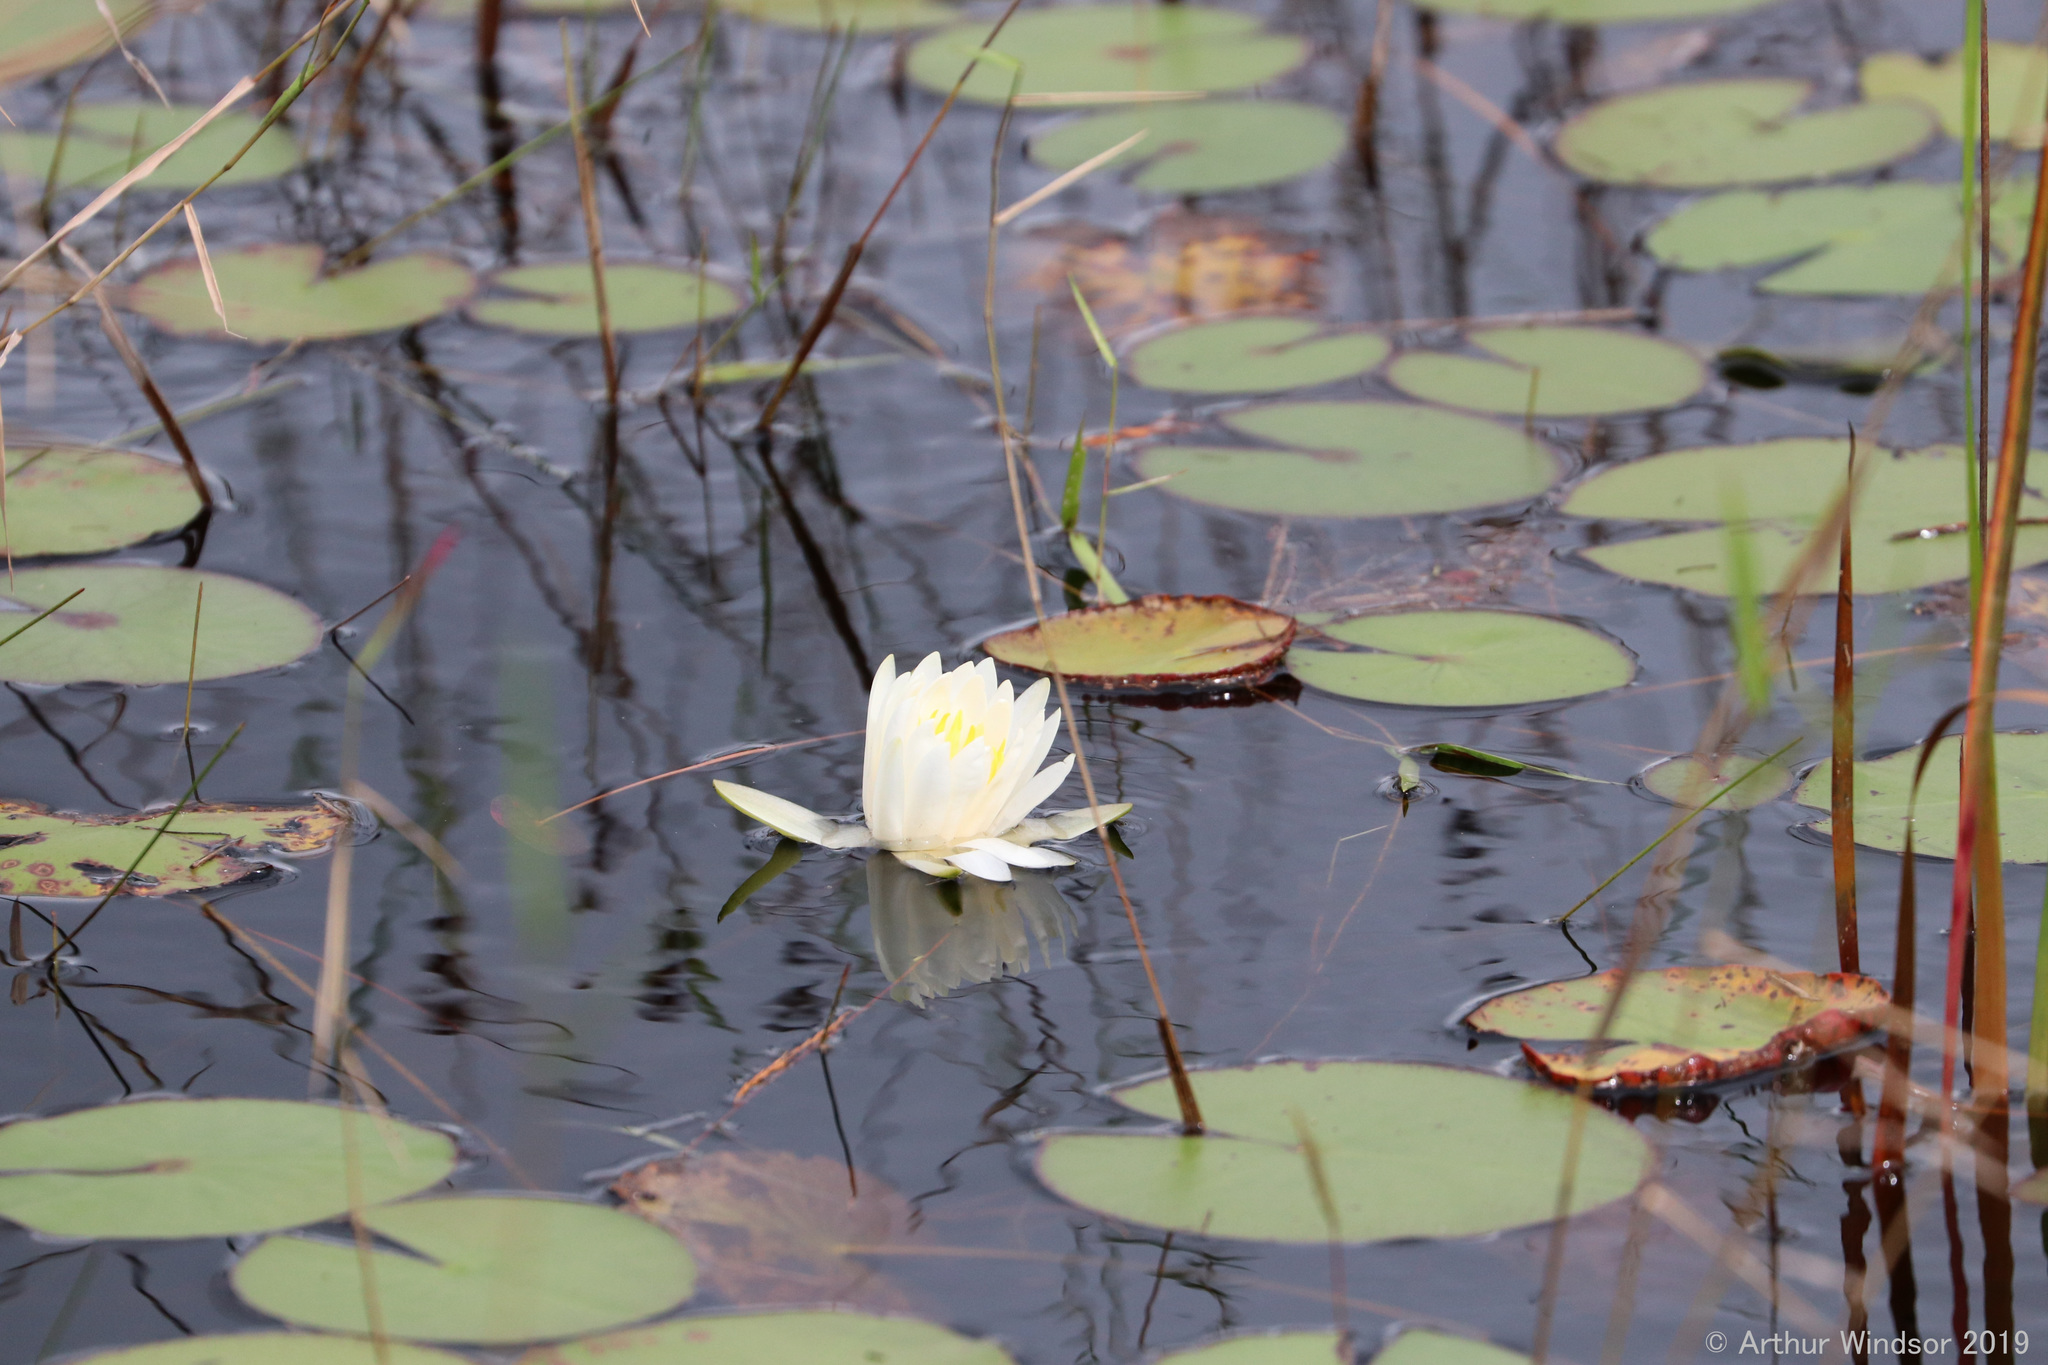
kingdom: Plantae
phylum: Tracheophyta
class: Magnoliopsida
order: Nymphaeales
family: Nymphaeaceae
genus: Nymphaea
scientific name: Nymphaea odorata
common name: Fragrant water-lily
